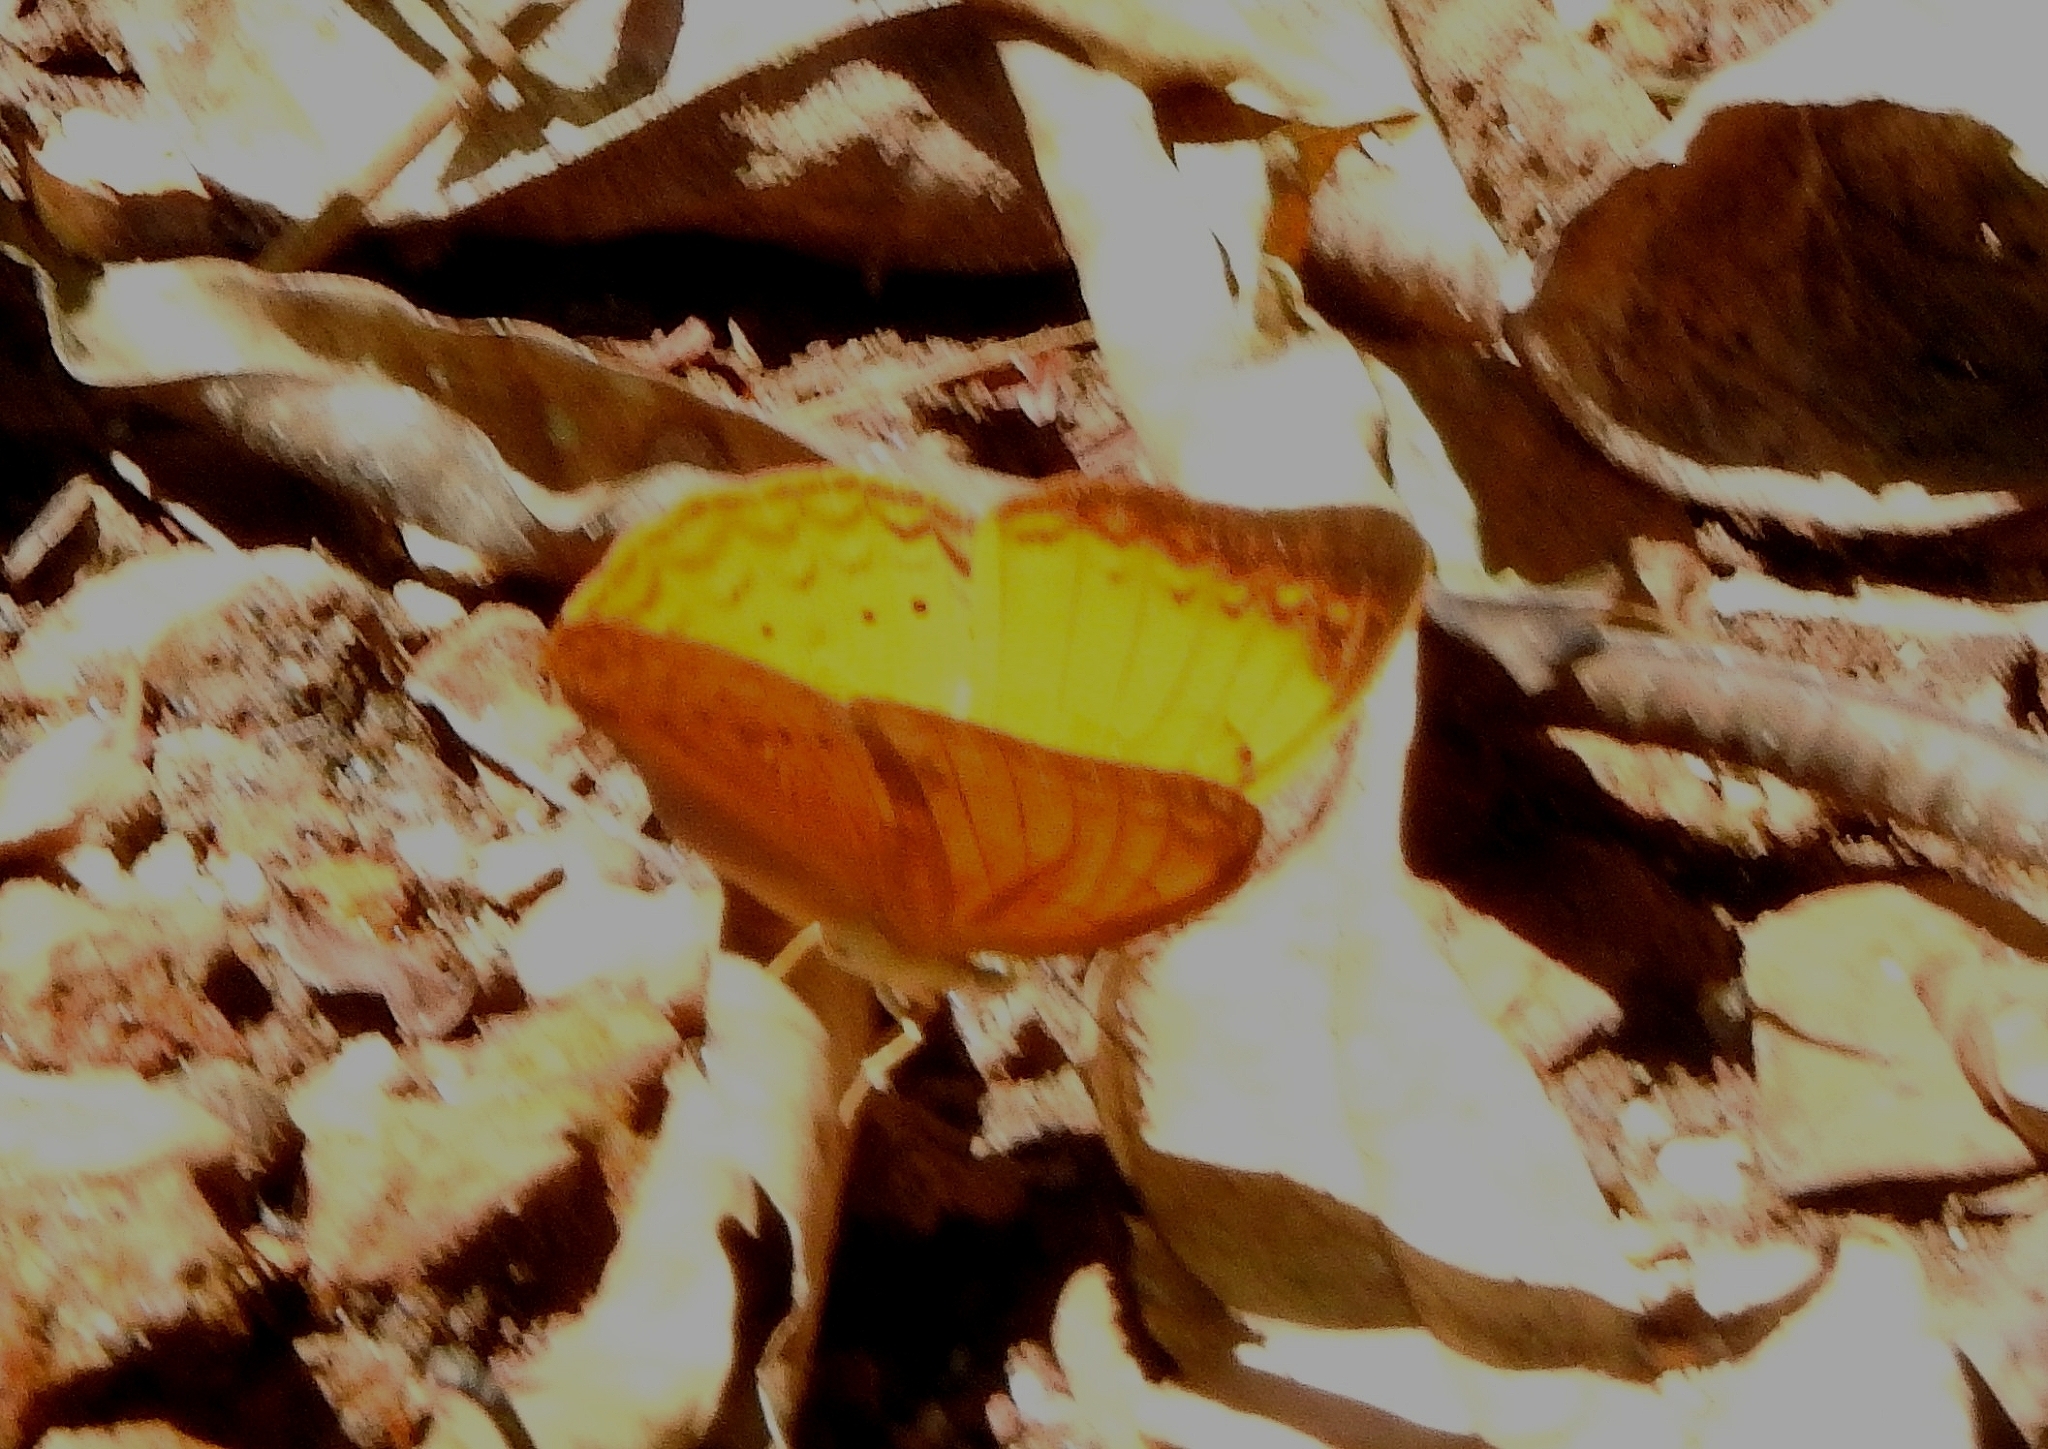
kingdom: Animalia
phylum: Arthropoda
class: Insecta
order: Lepidoptera
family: Nymphalidae
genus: Cirrochroa
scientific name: Cirrochroa thais
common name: Tamil yeoman
